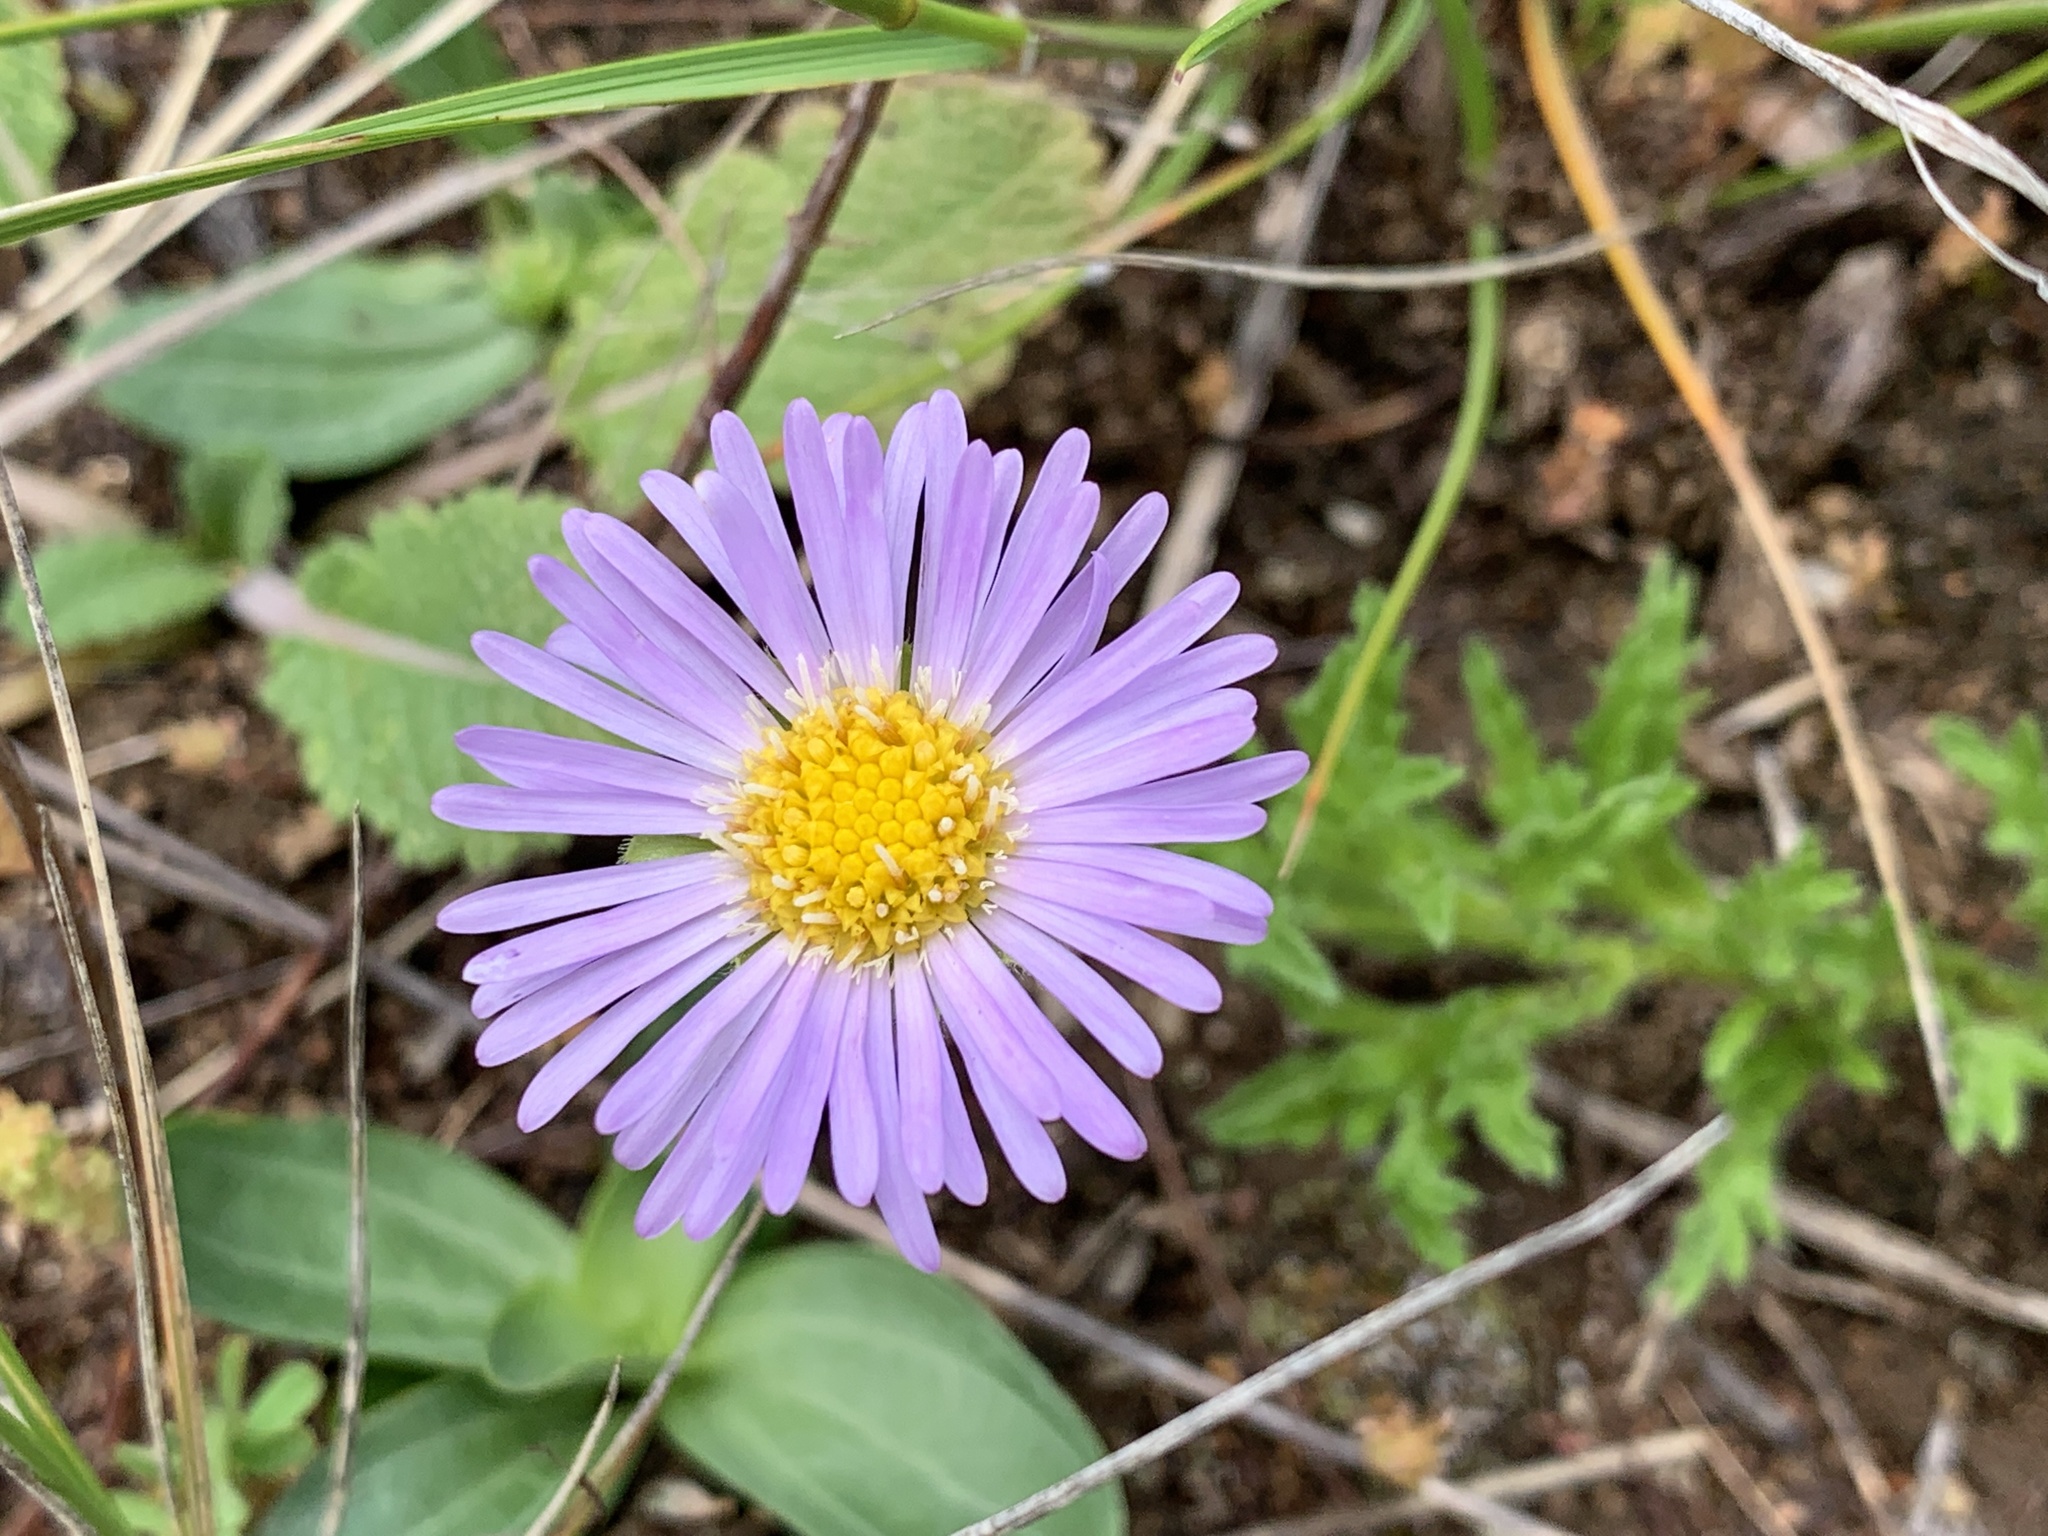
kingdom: Plantae
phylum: Tracheophyta
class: Magnoliopsida
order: Asterales
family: Asteraceae
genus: Calotis
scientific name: Calotis glandulosa
